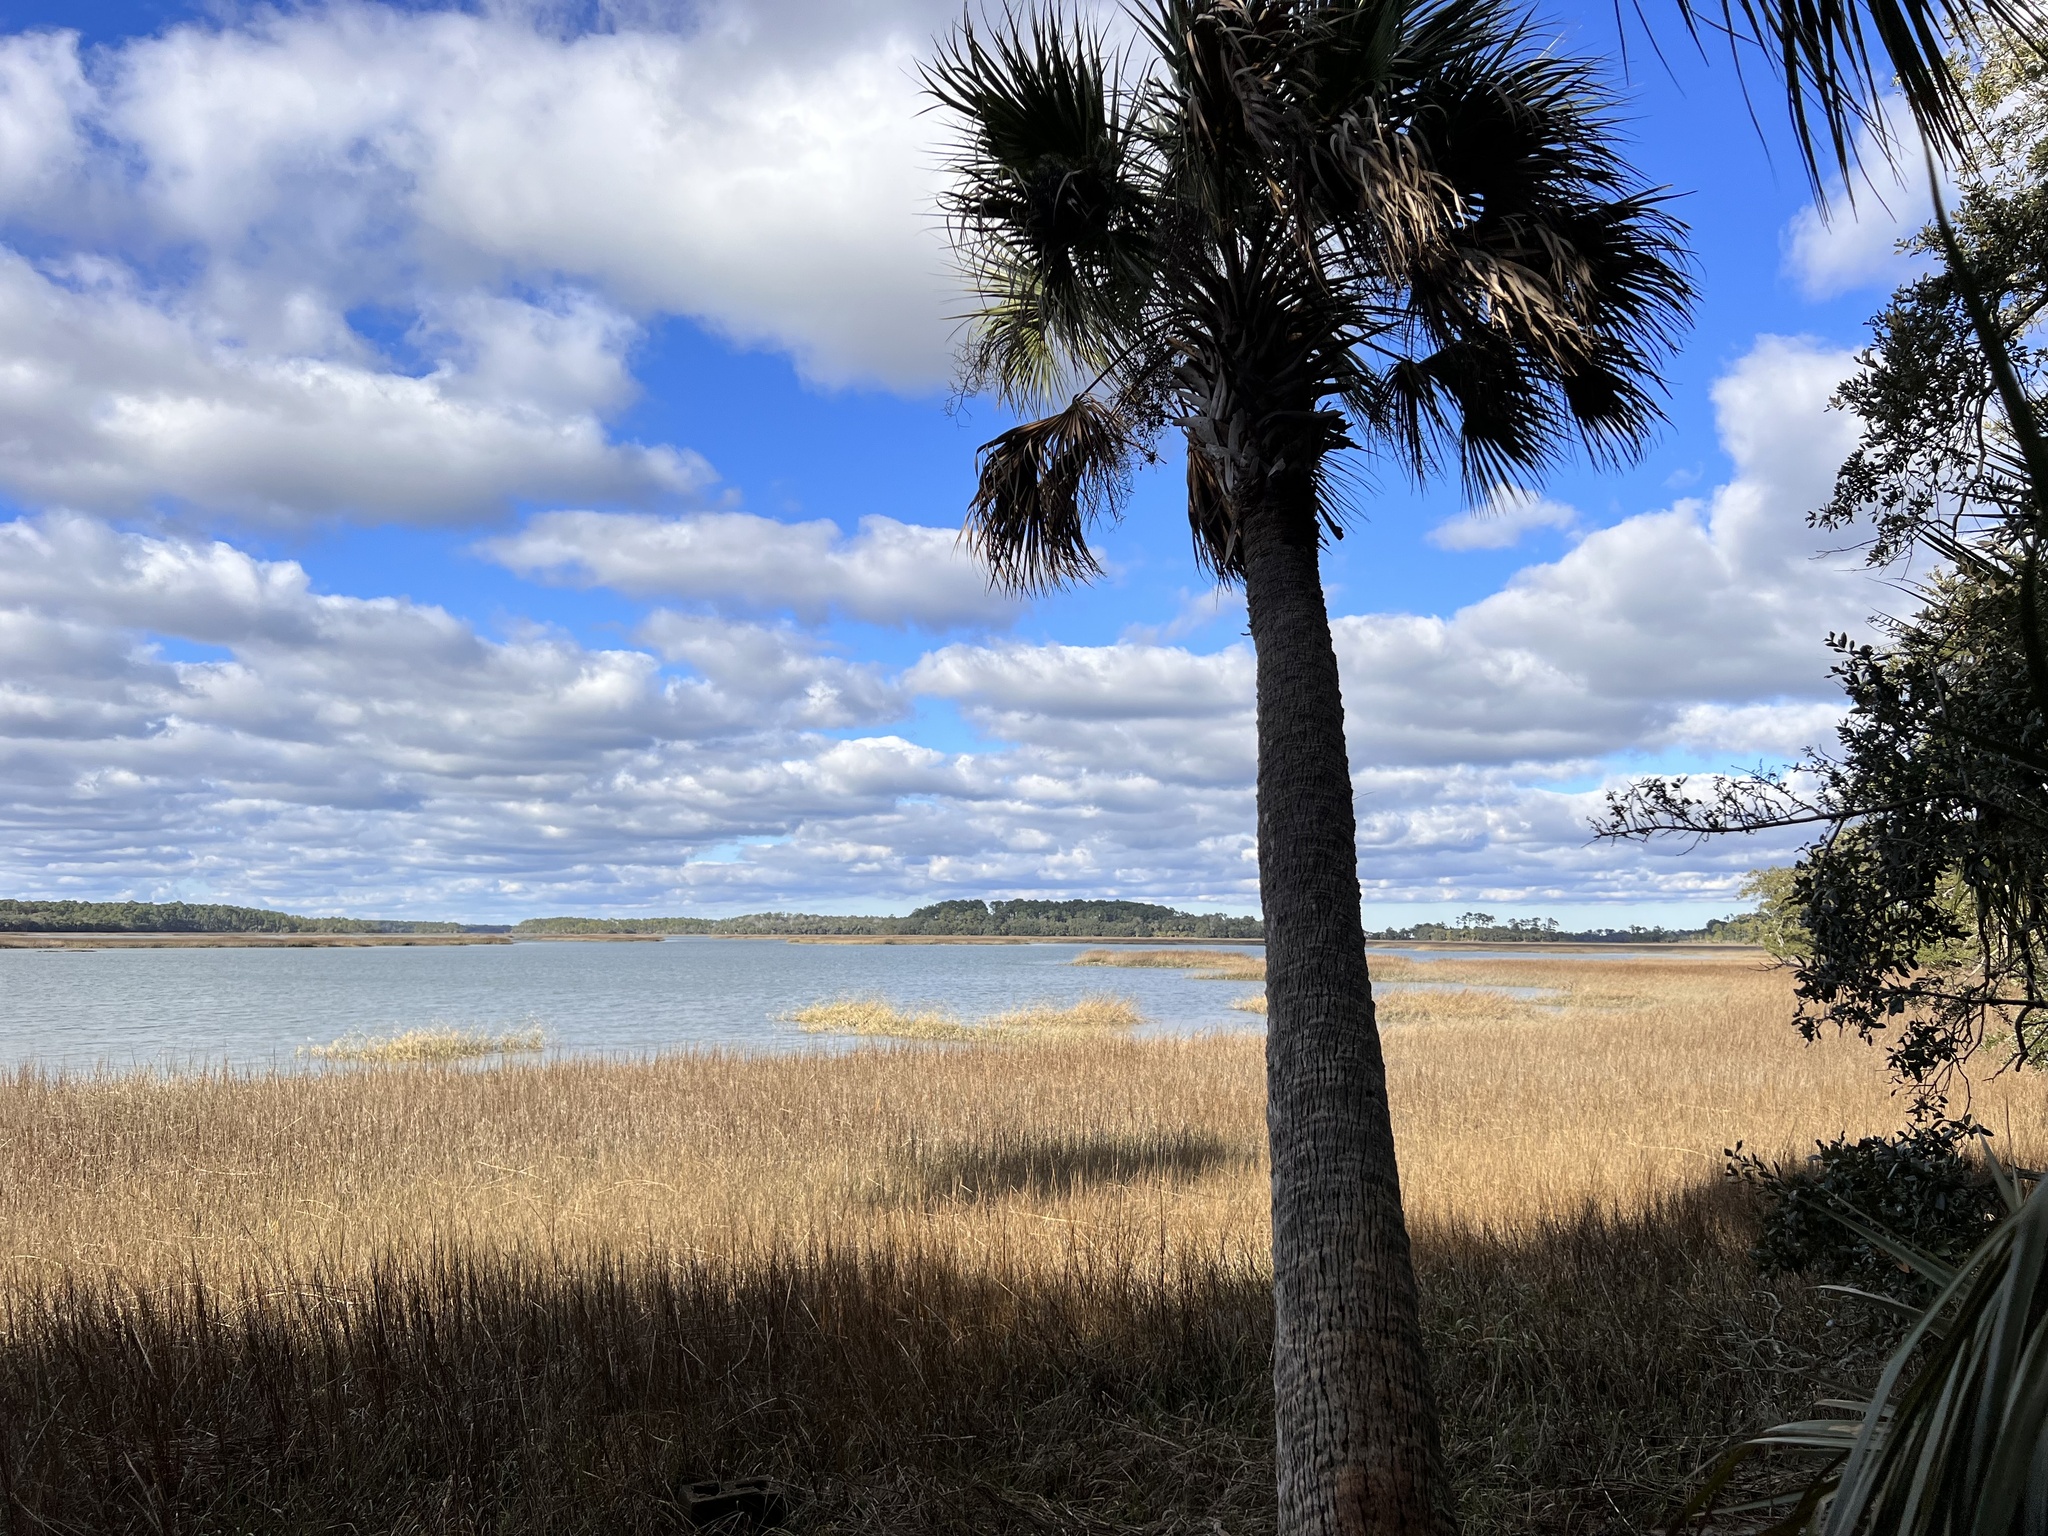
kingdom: Plantae
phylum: Tracheophyta
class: Liliopsida
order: Arecales
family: Arecaceae
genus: Sabal
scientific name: Sabal palmetto
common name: Blue palmetto
